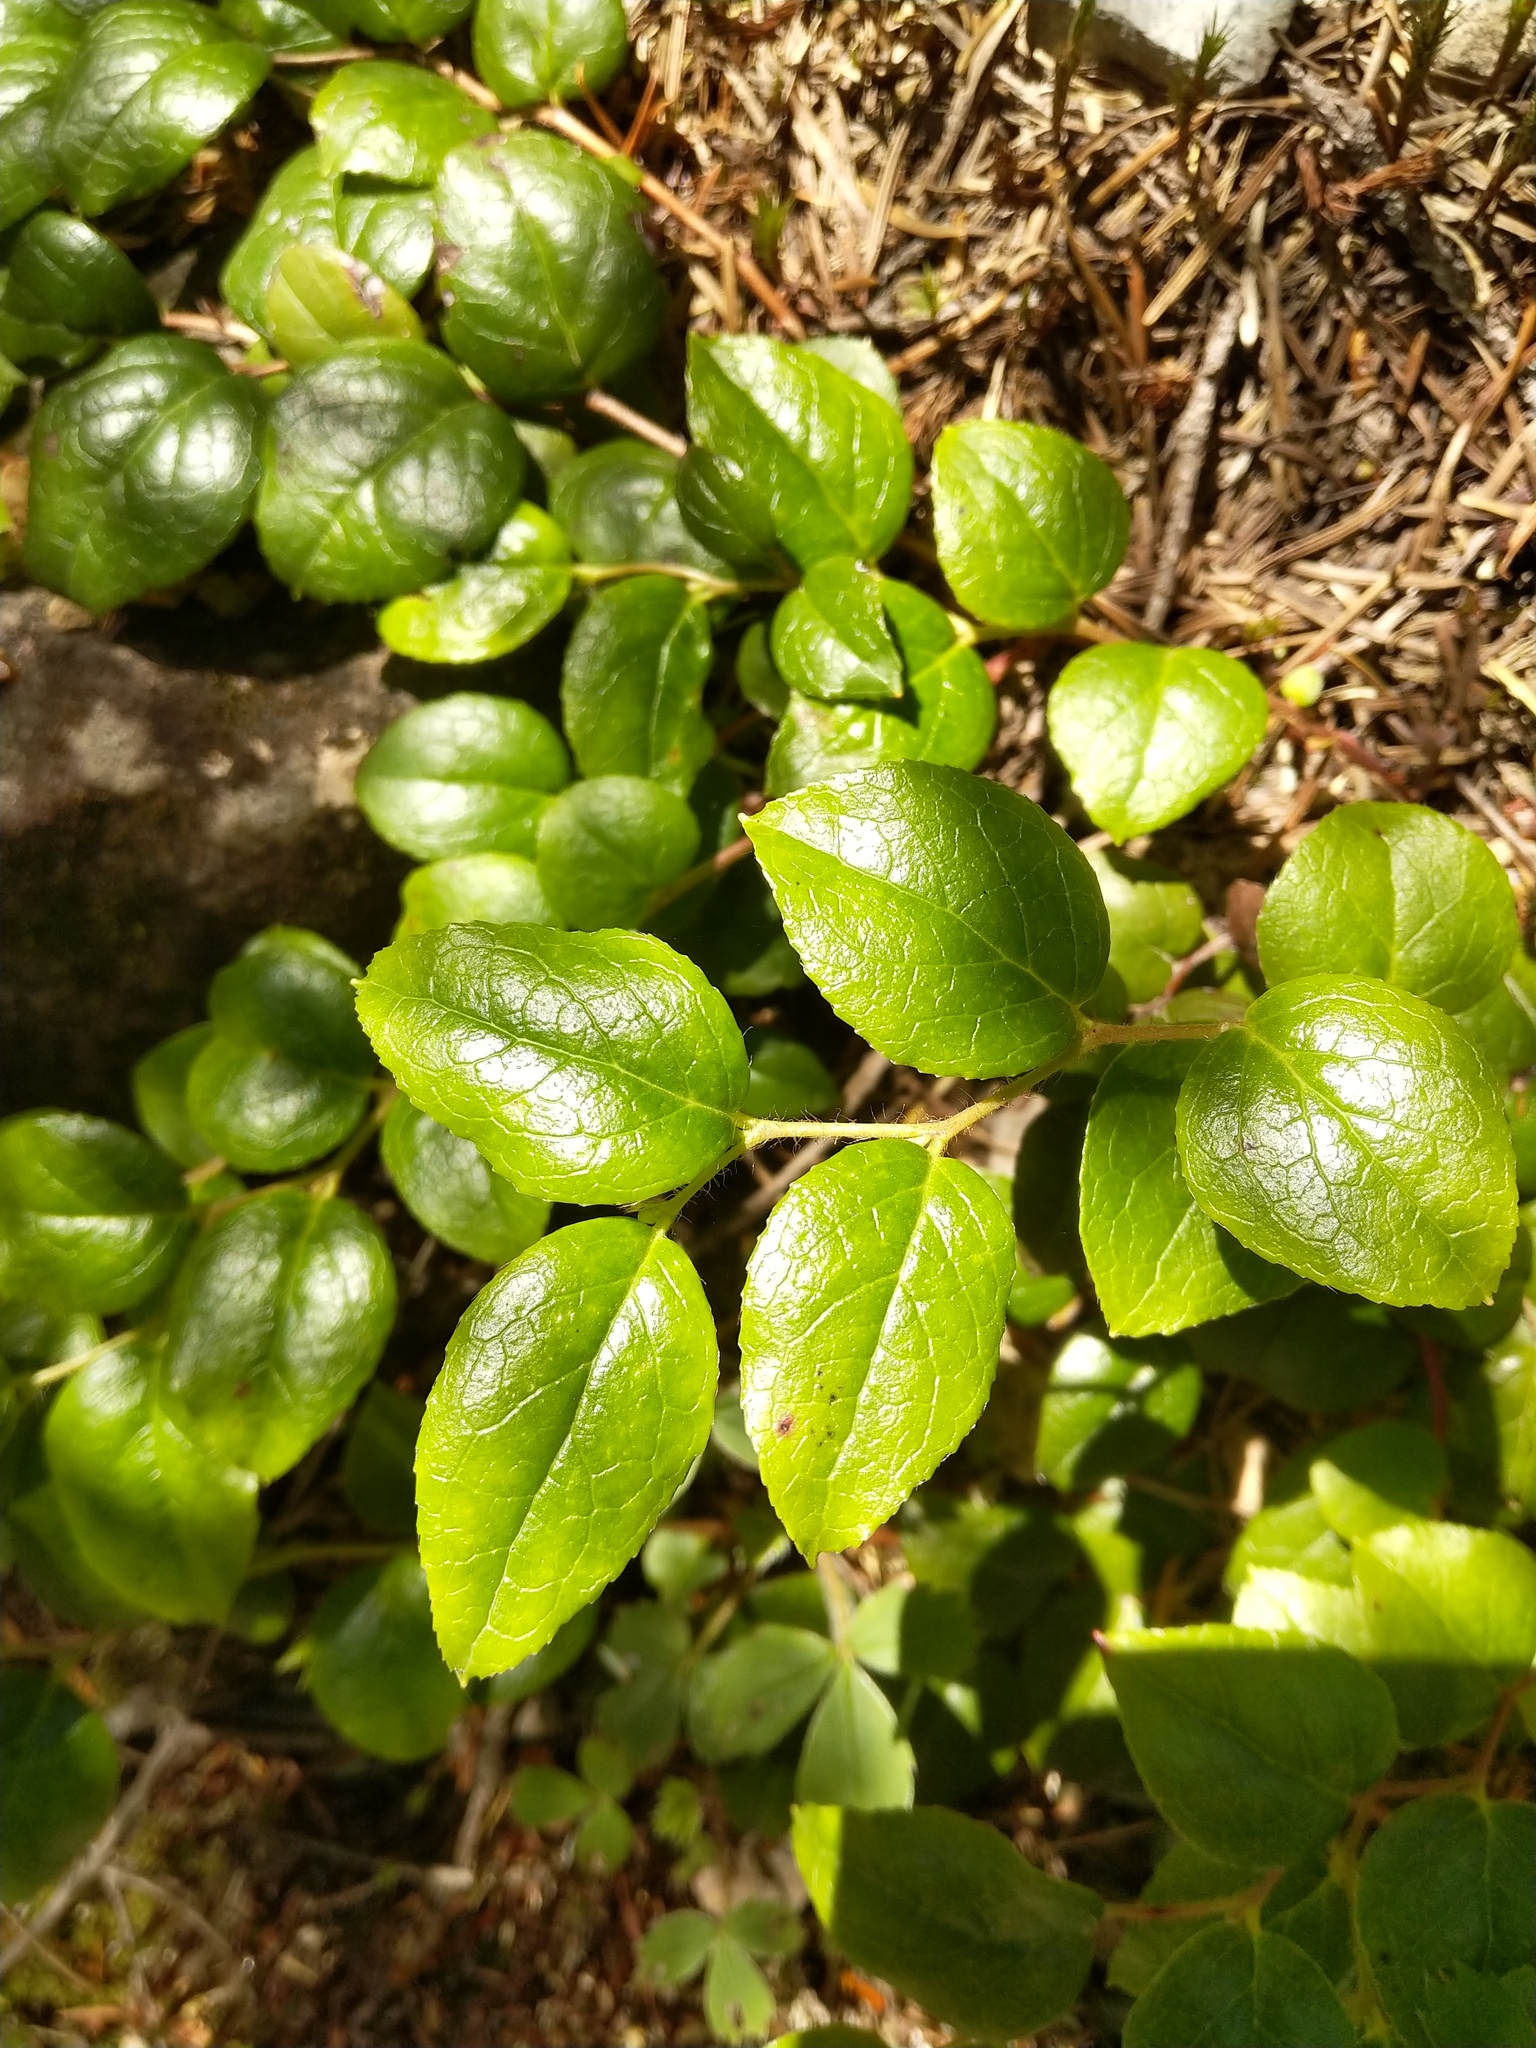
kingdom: Plantae
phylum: Tracheophyta
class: Magnoliopsida
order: Ericales
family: Ericaceae
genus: Gaultheria
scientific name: Gaultheria ovatifolia
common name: Oregon wintergreen
